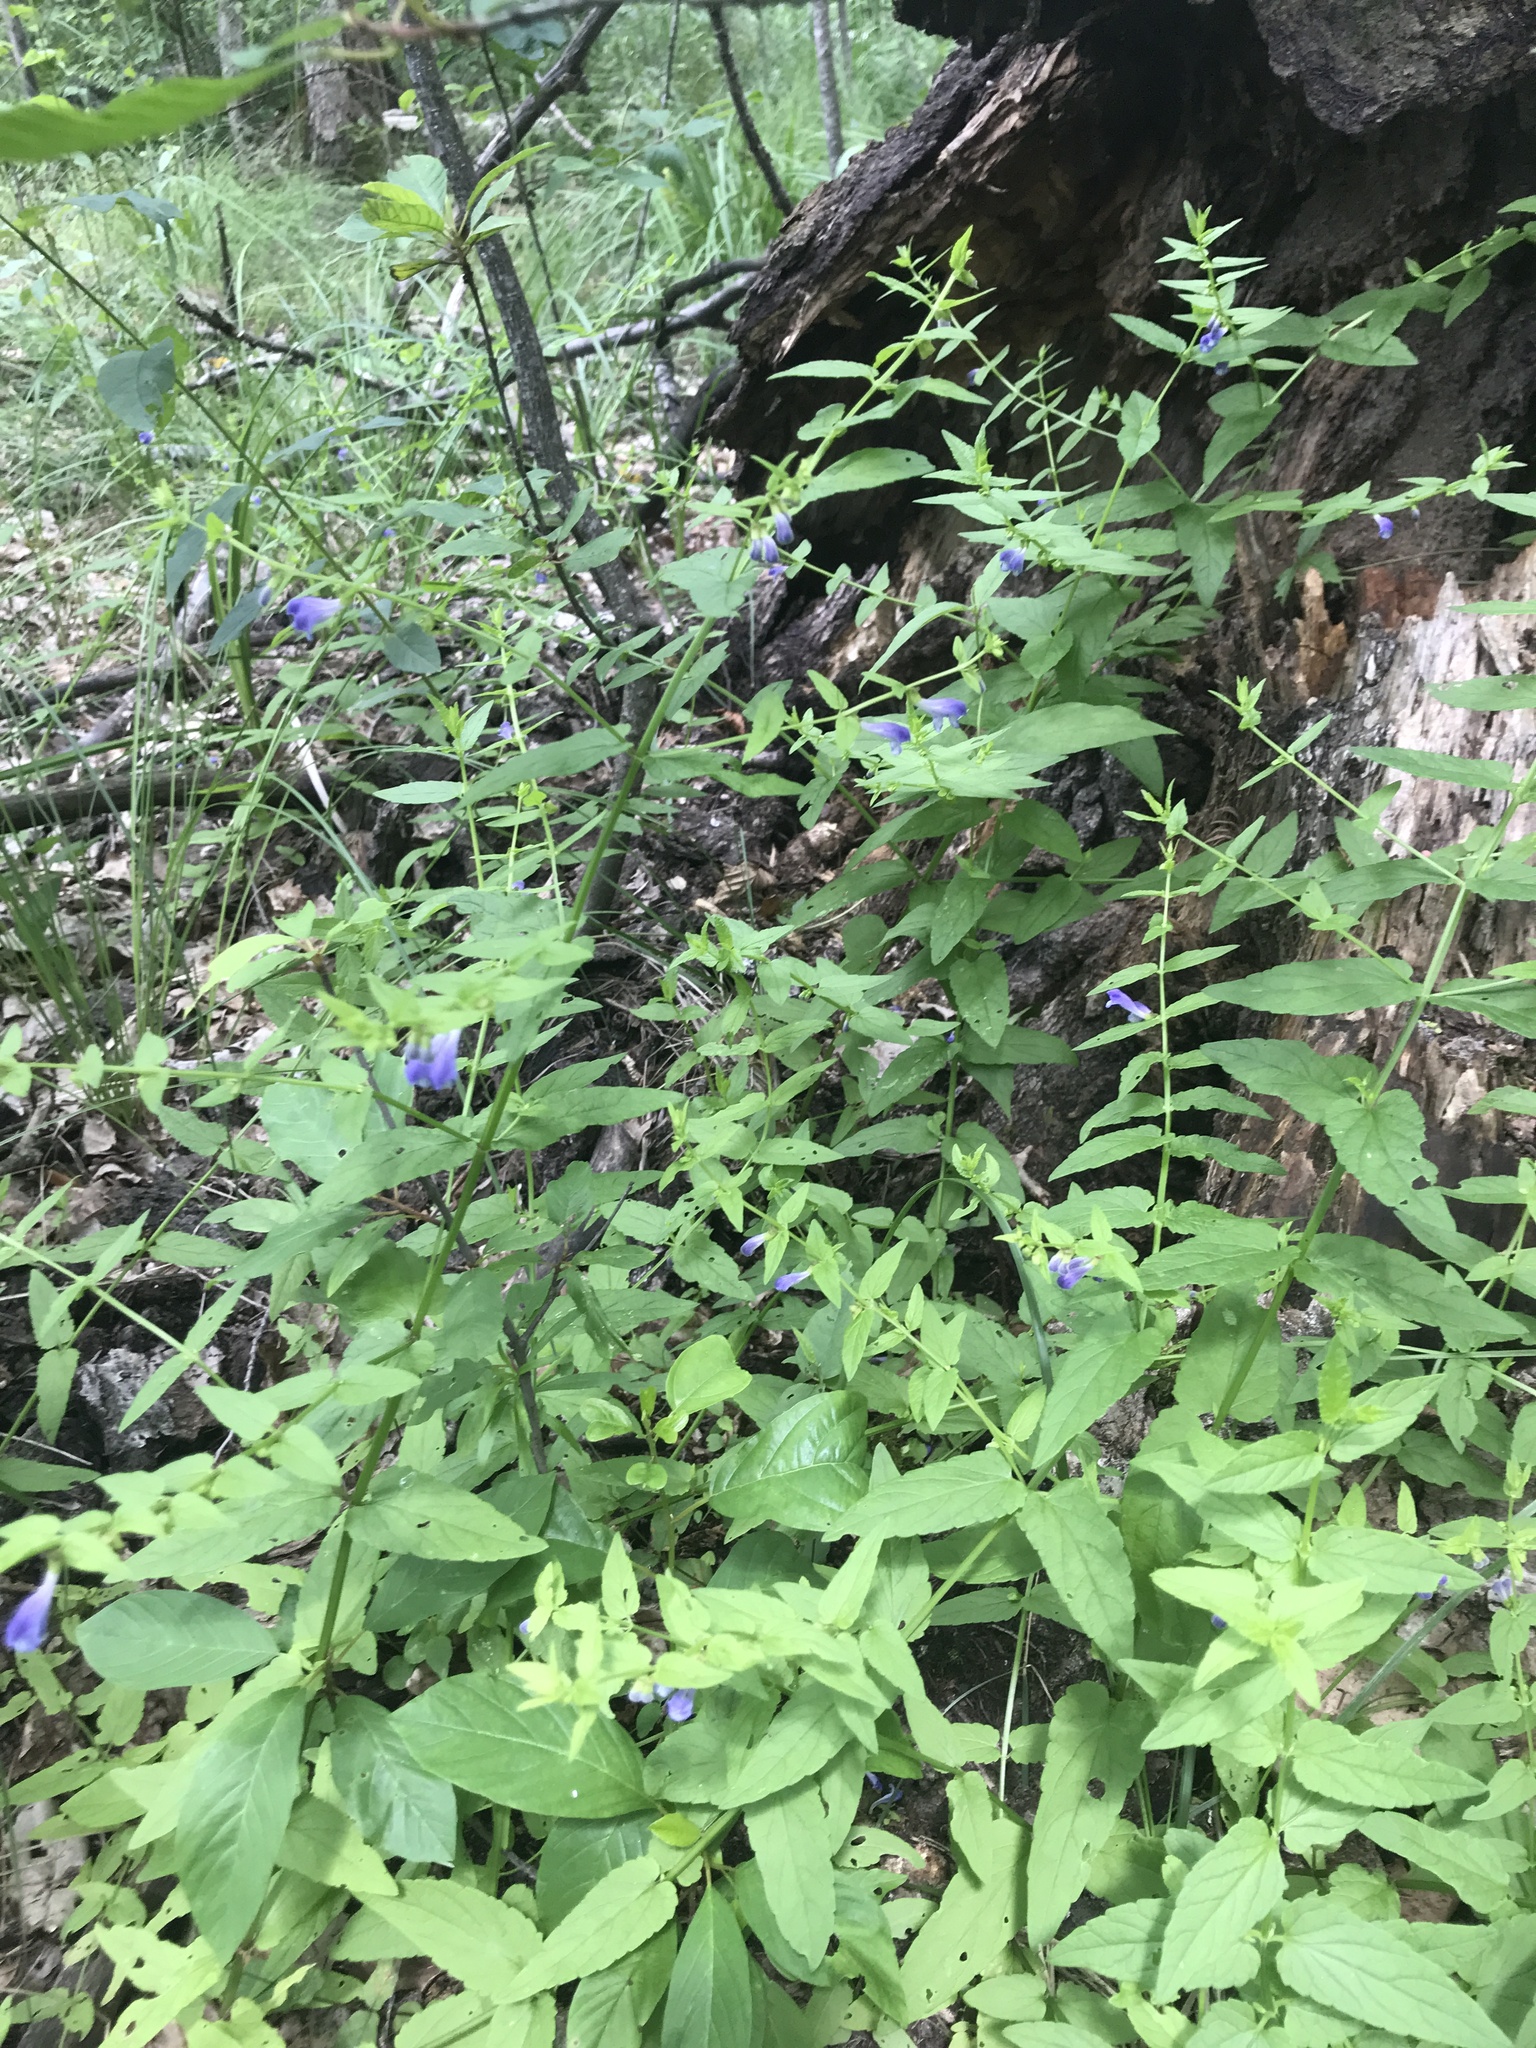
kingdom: Plantae
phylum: Tracheophyta
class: Magnoliopsida
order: Lamiales
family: Lamiaceae
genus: Scutellaria
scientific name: Scutellaria galericulata
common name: Skullcap
